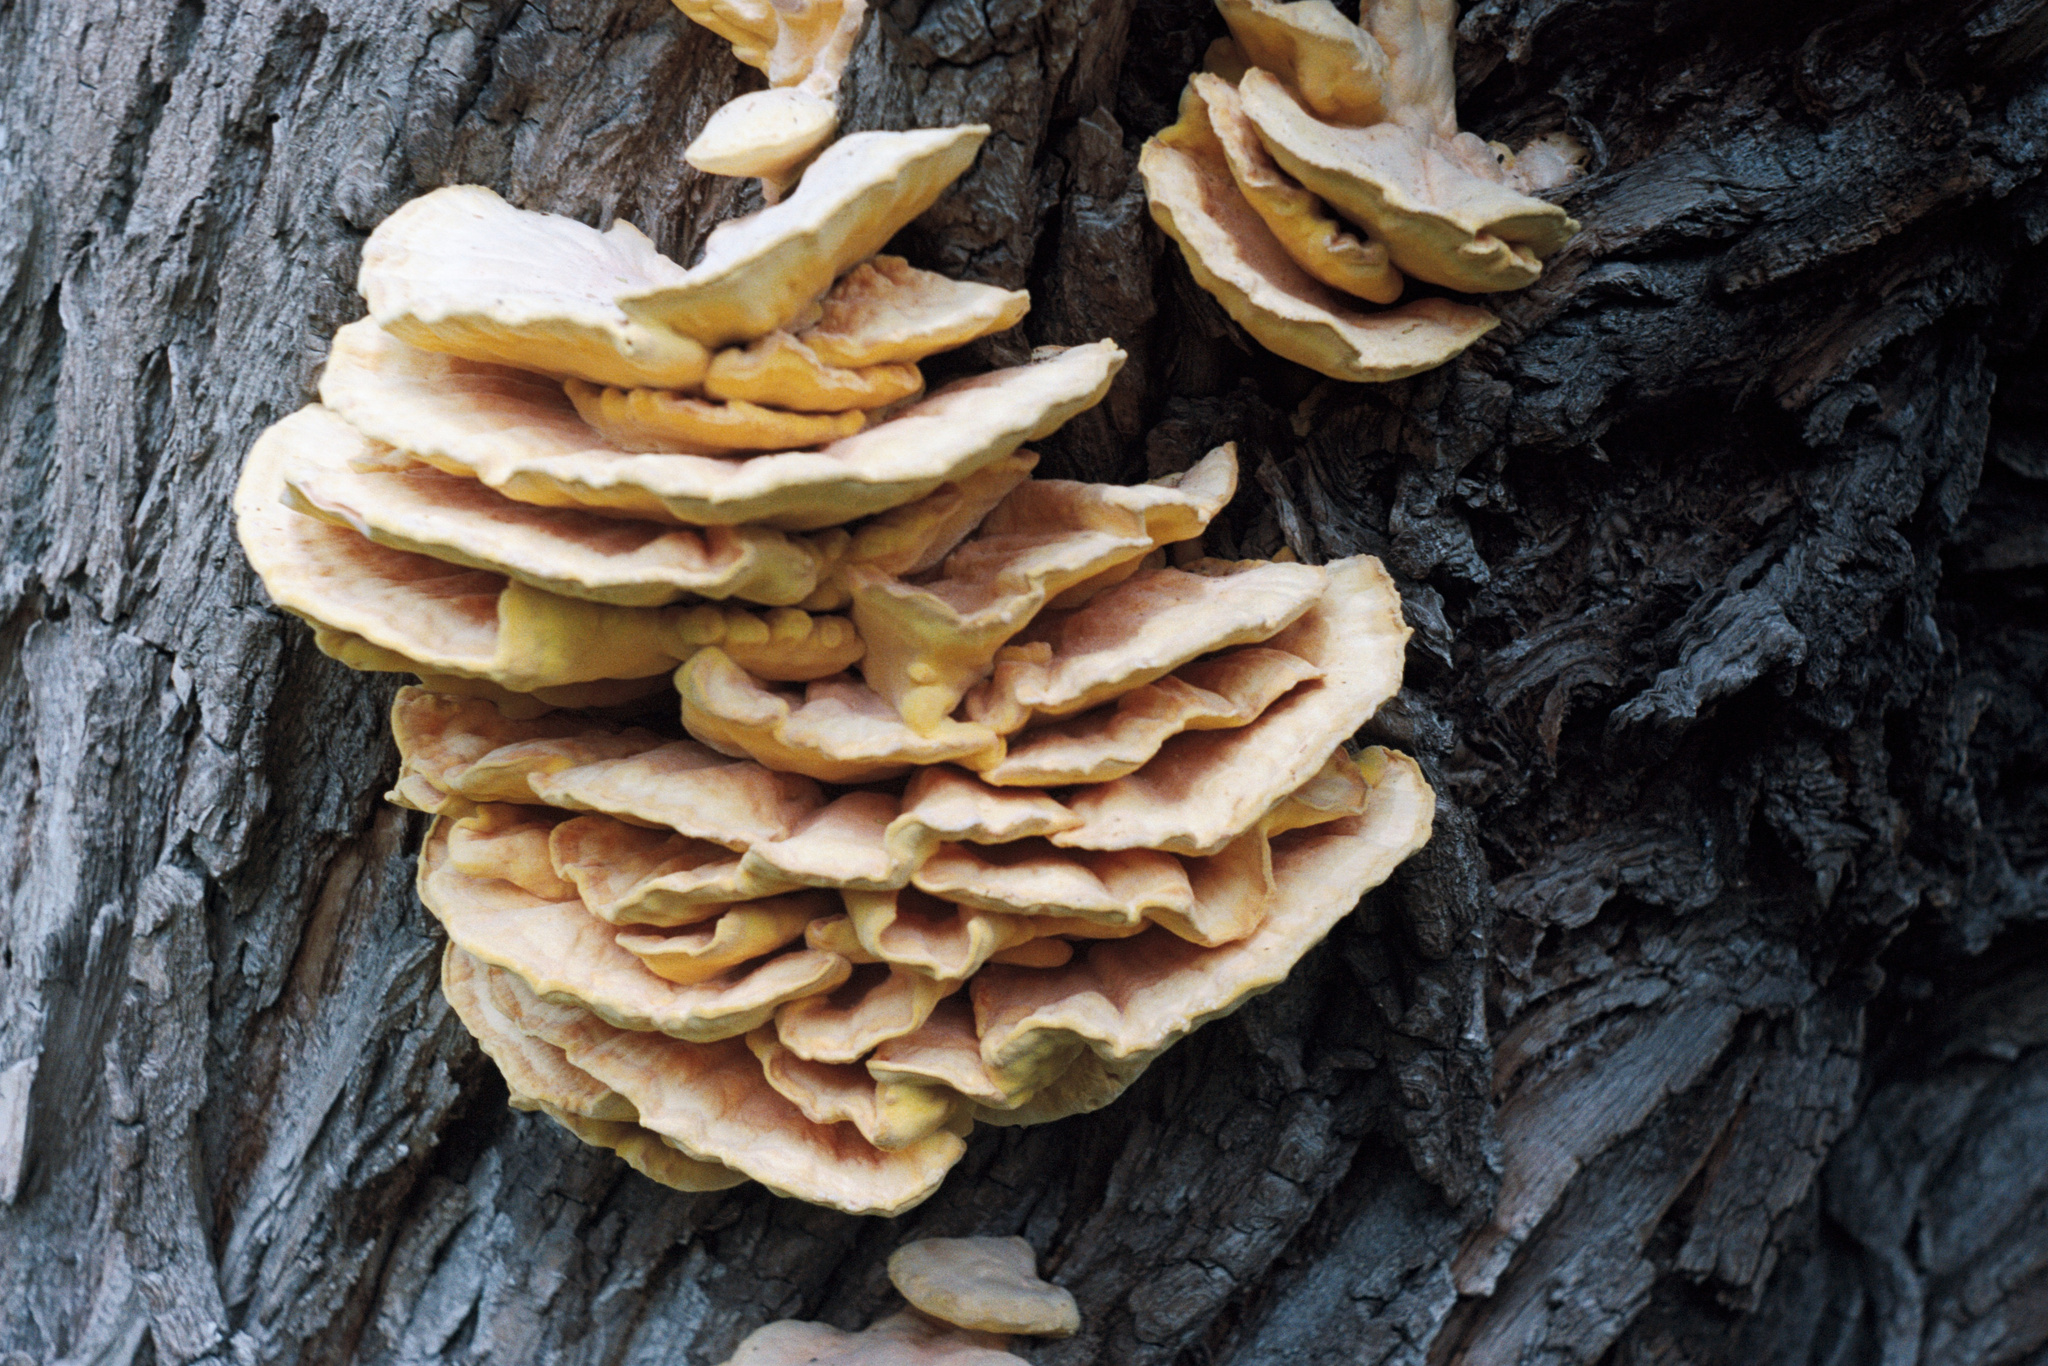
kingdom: Fungi
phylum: Basidiomycota
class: Agaricomycetes
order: Polyporales
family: Laetiporaceae
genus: Laetiporus
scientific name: Laetiporus sulphureus
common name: Chicken of the woods
